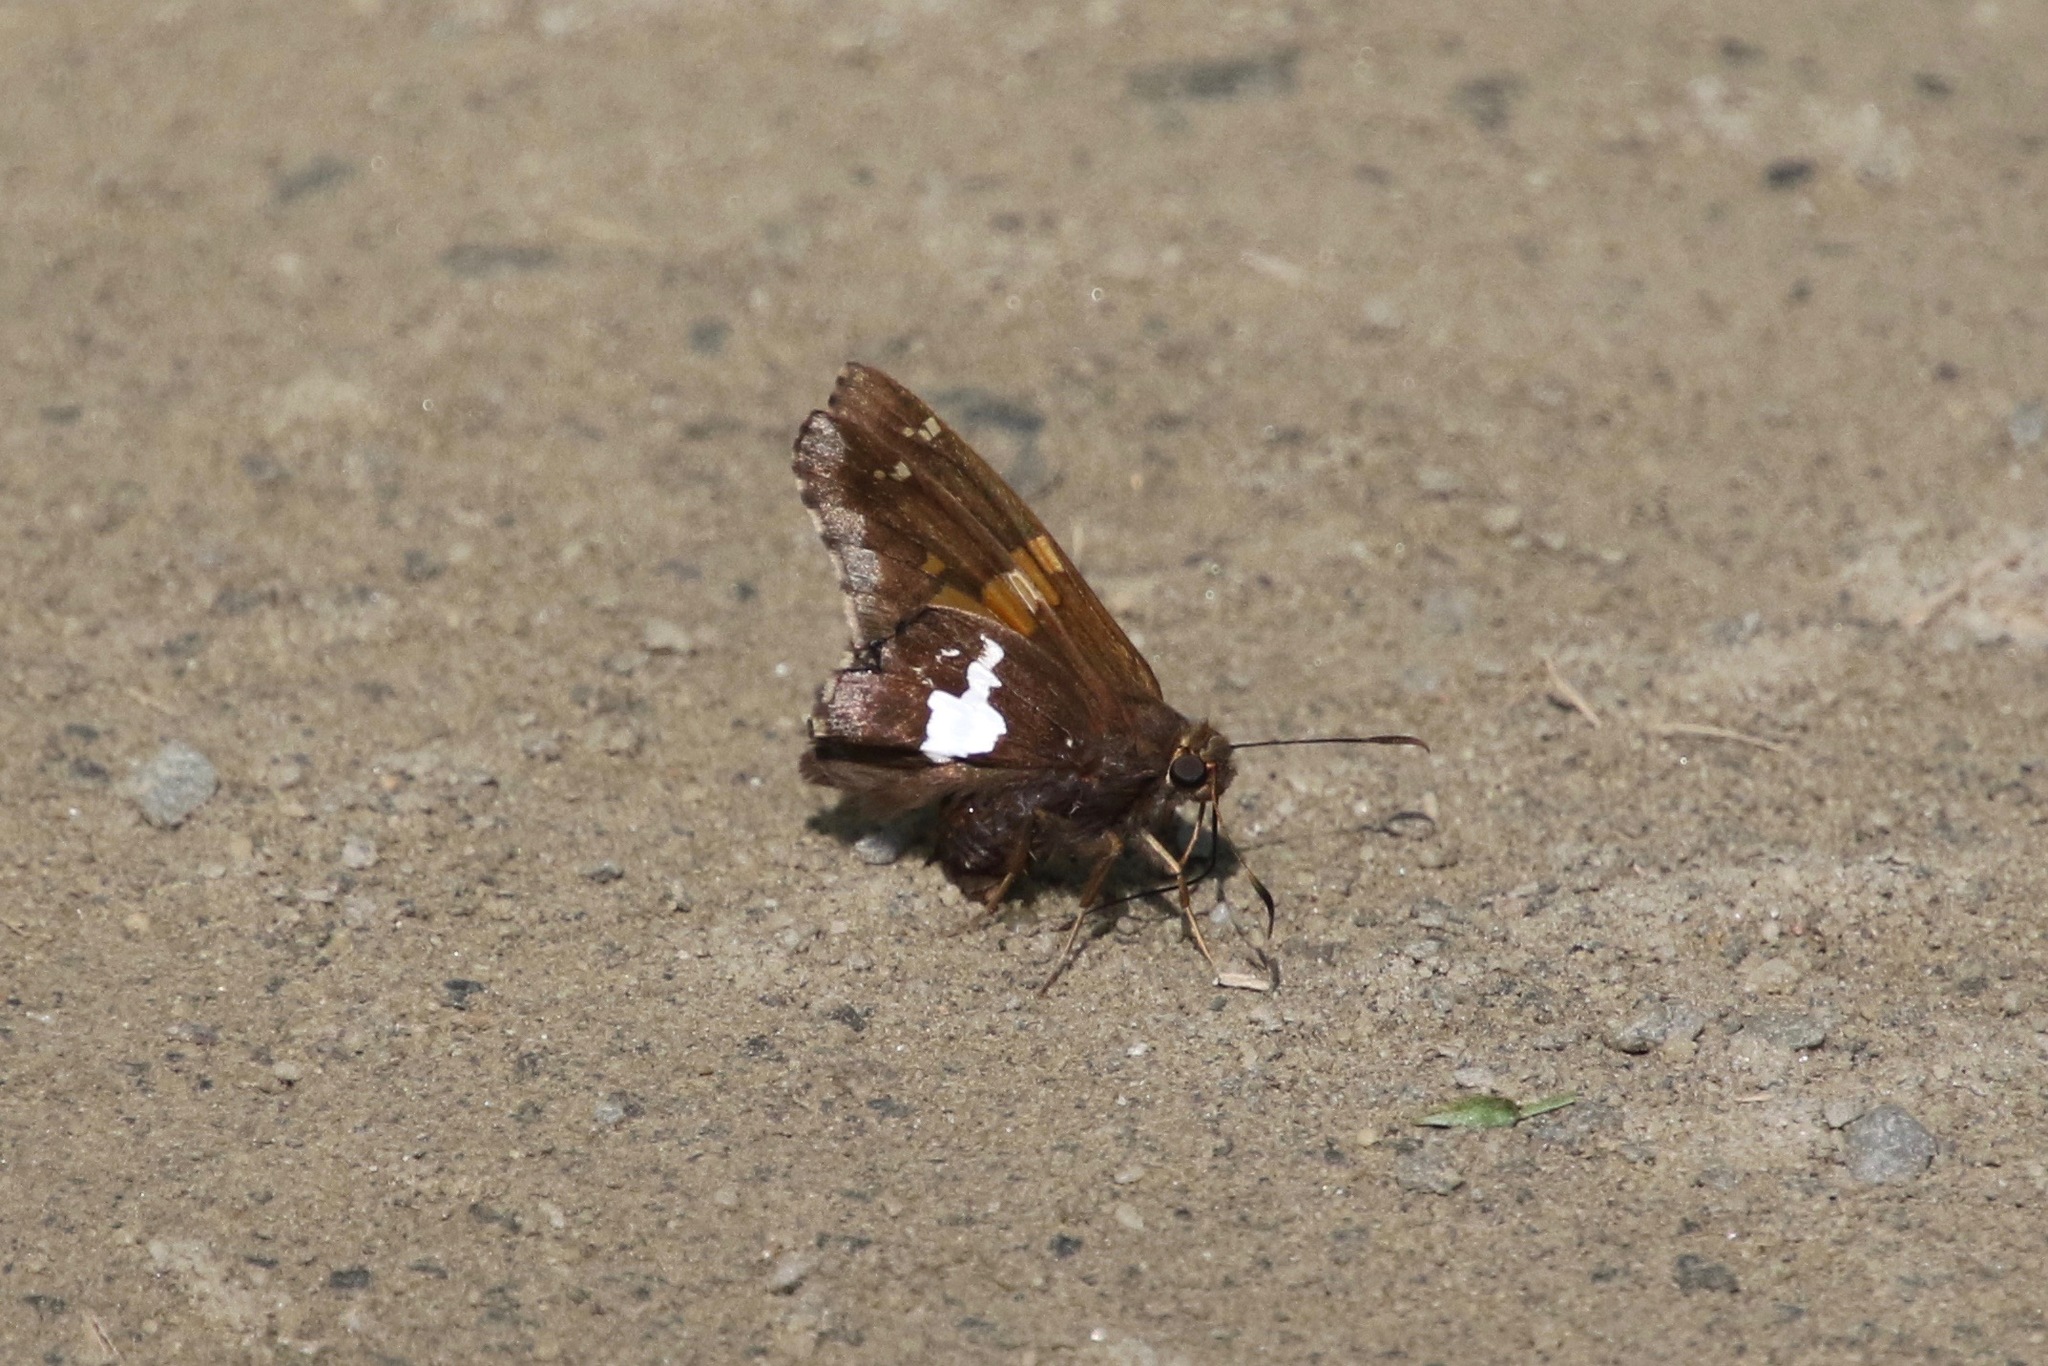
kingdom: Animalia
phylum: Arthropoda
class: Insecta
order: Lepidoptera
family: Hesperiidae
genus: Epargyreus
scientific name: Epargyreus clarus
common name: Silver-spotted skipper
